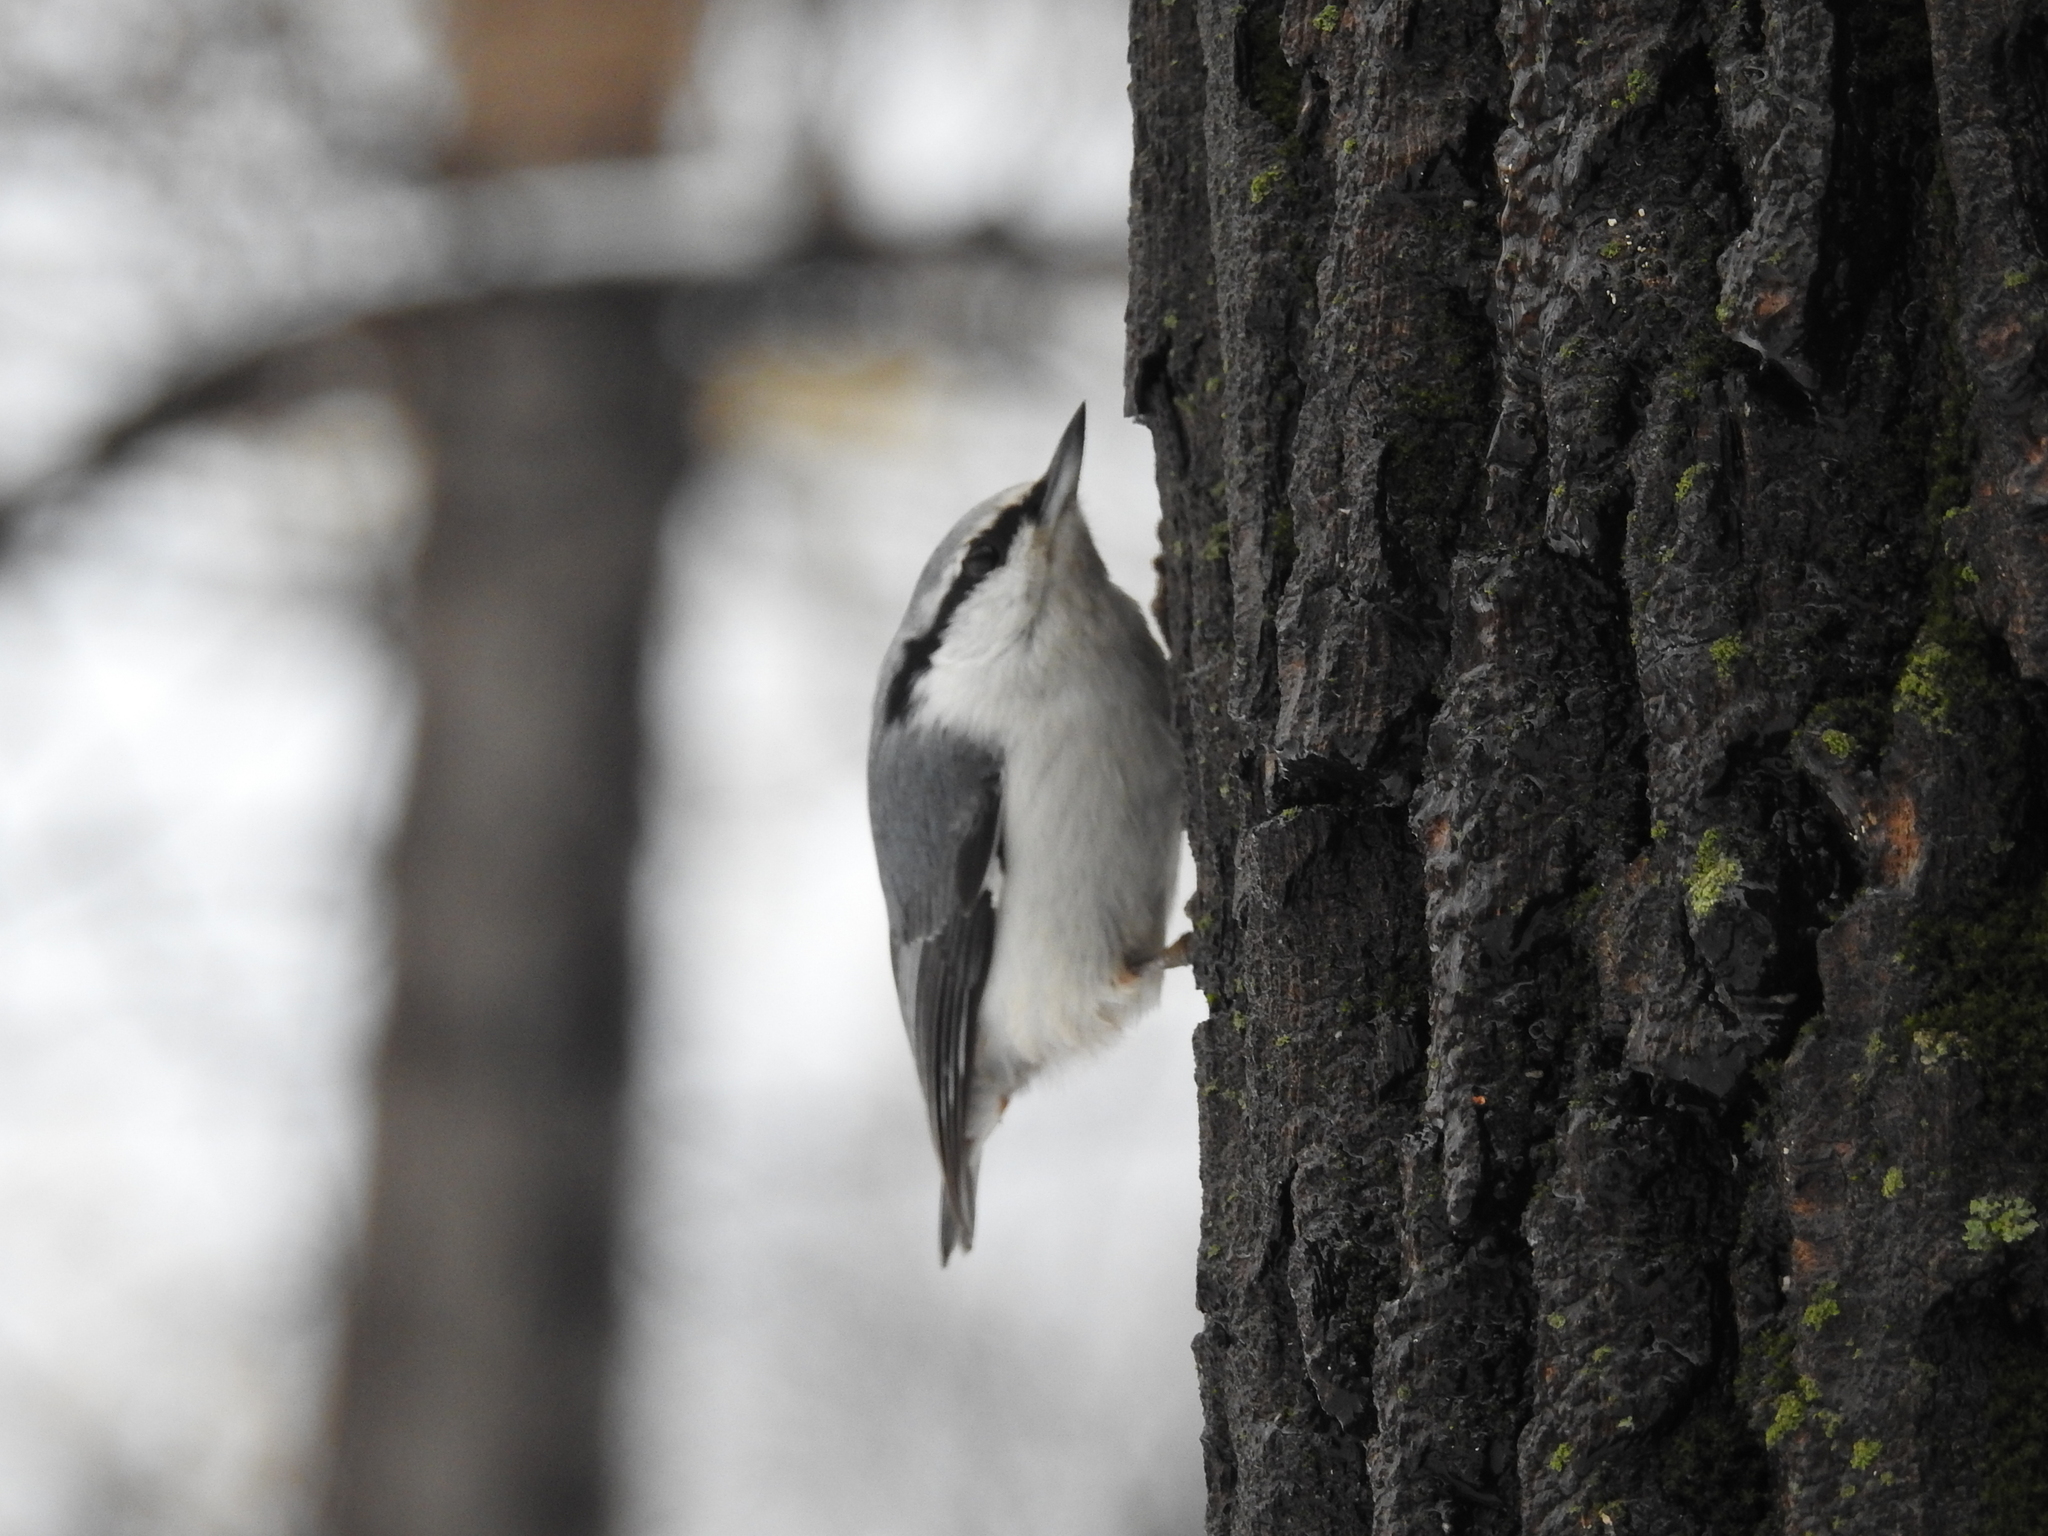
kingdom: Animalia
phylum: Chordata
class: Aves
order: Passeriformes
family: Sittidae
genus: Sitta
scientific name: Sitta europaea
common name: Eurasian nuthatch
